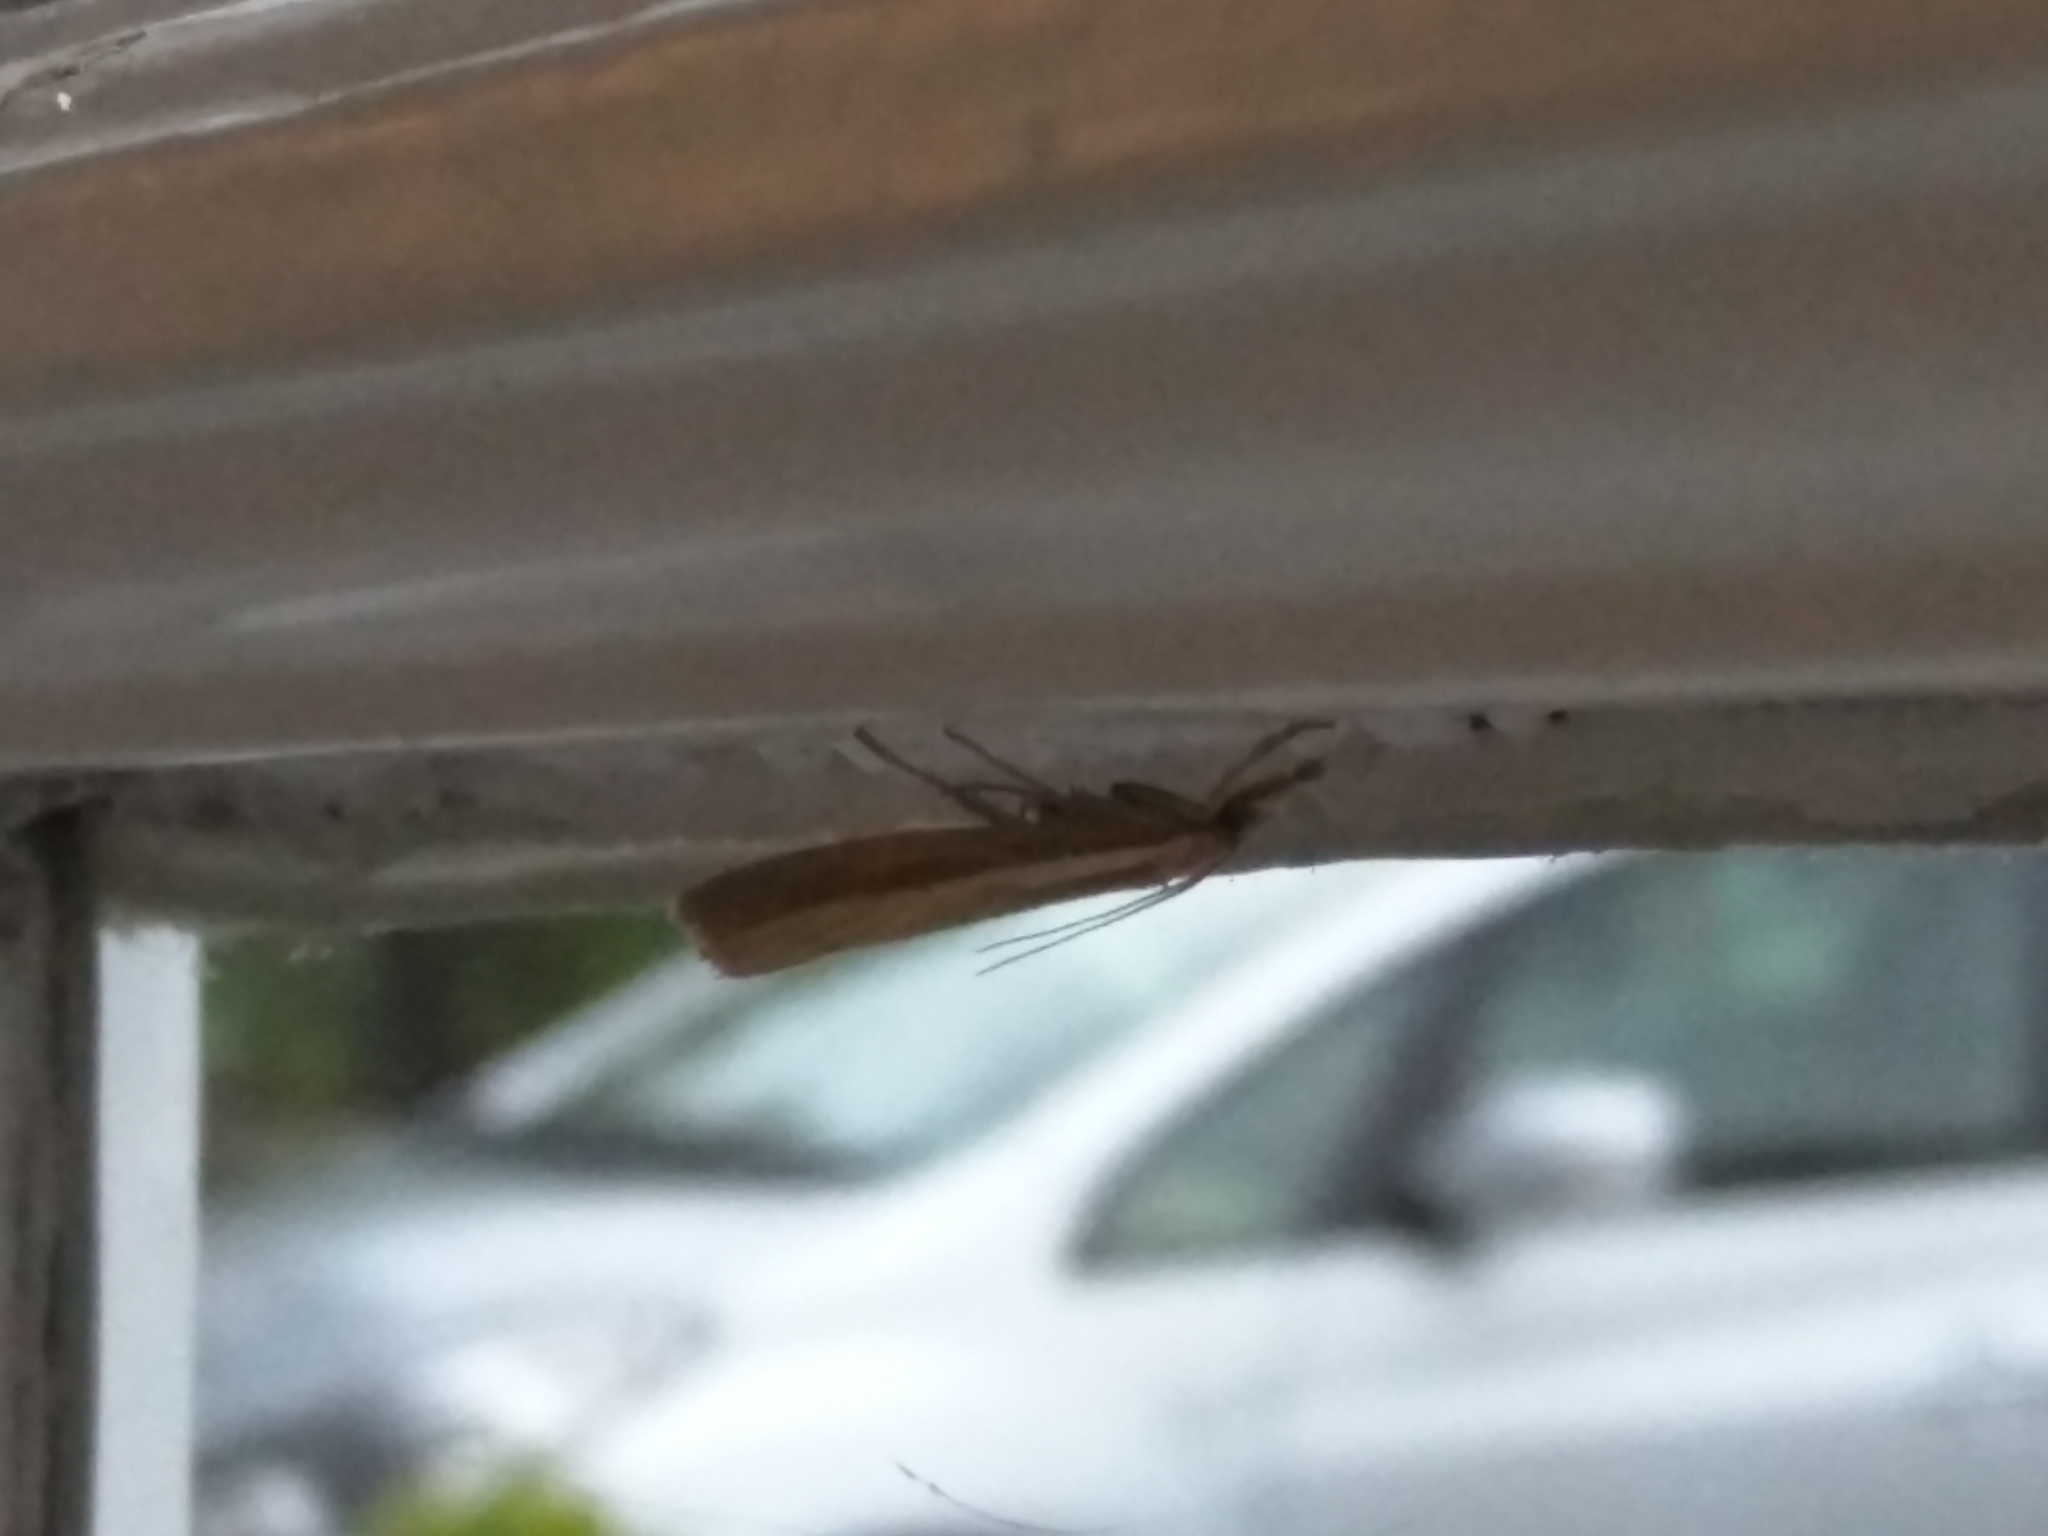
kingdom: Animalia
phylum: Arthropoda
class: Insecta
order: Lepidoptera
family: Crambidae
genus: Agriphila
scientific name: Agriphila tristellus
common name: Common grass-veneer
